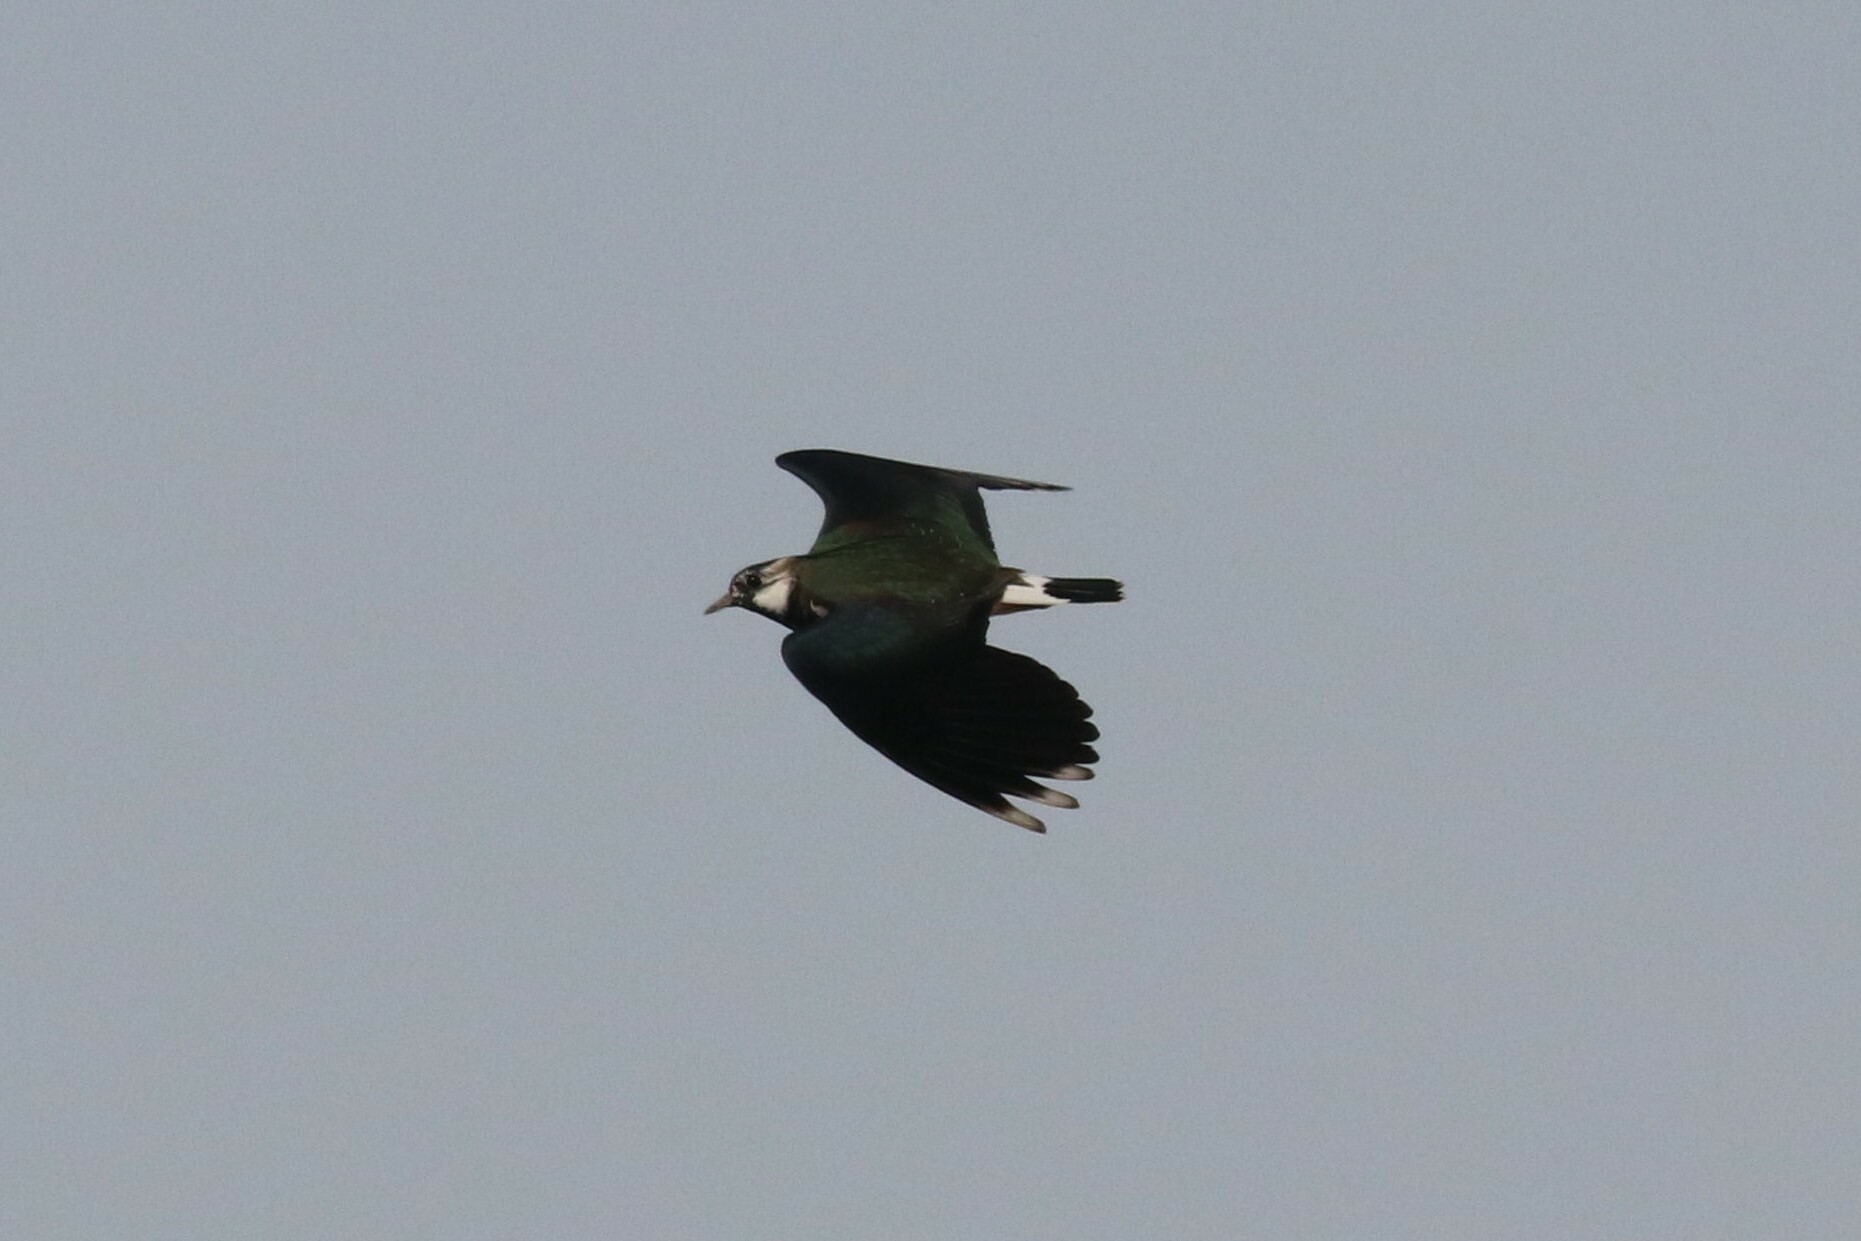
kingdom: Animalia
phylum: Chordata
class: Aves
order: Charadriiformes
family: Charadriidae
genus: Vanellus
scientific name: Vanellus vanellus
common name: Northern lapwing
